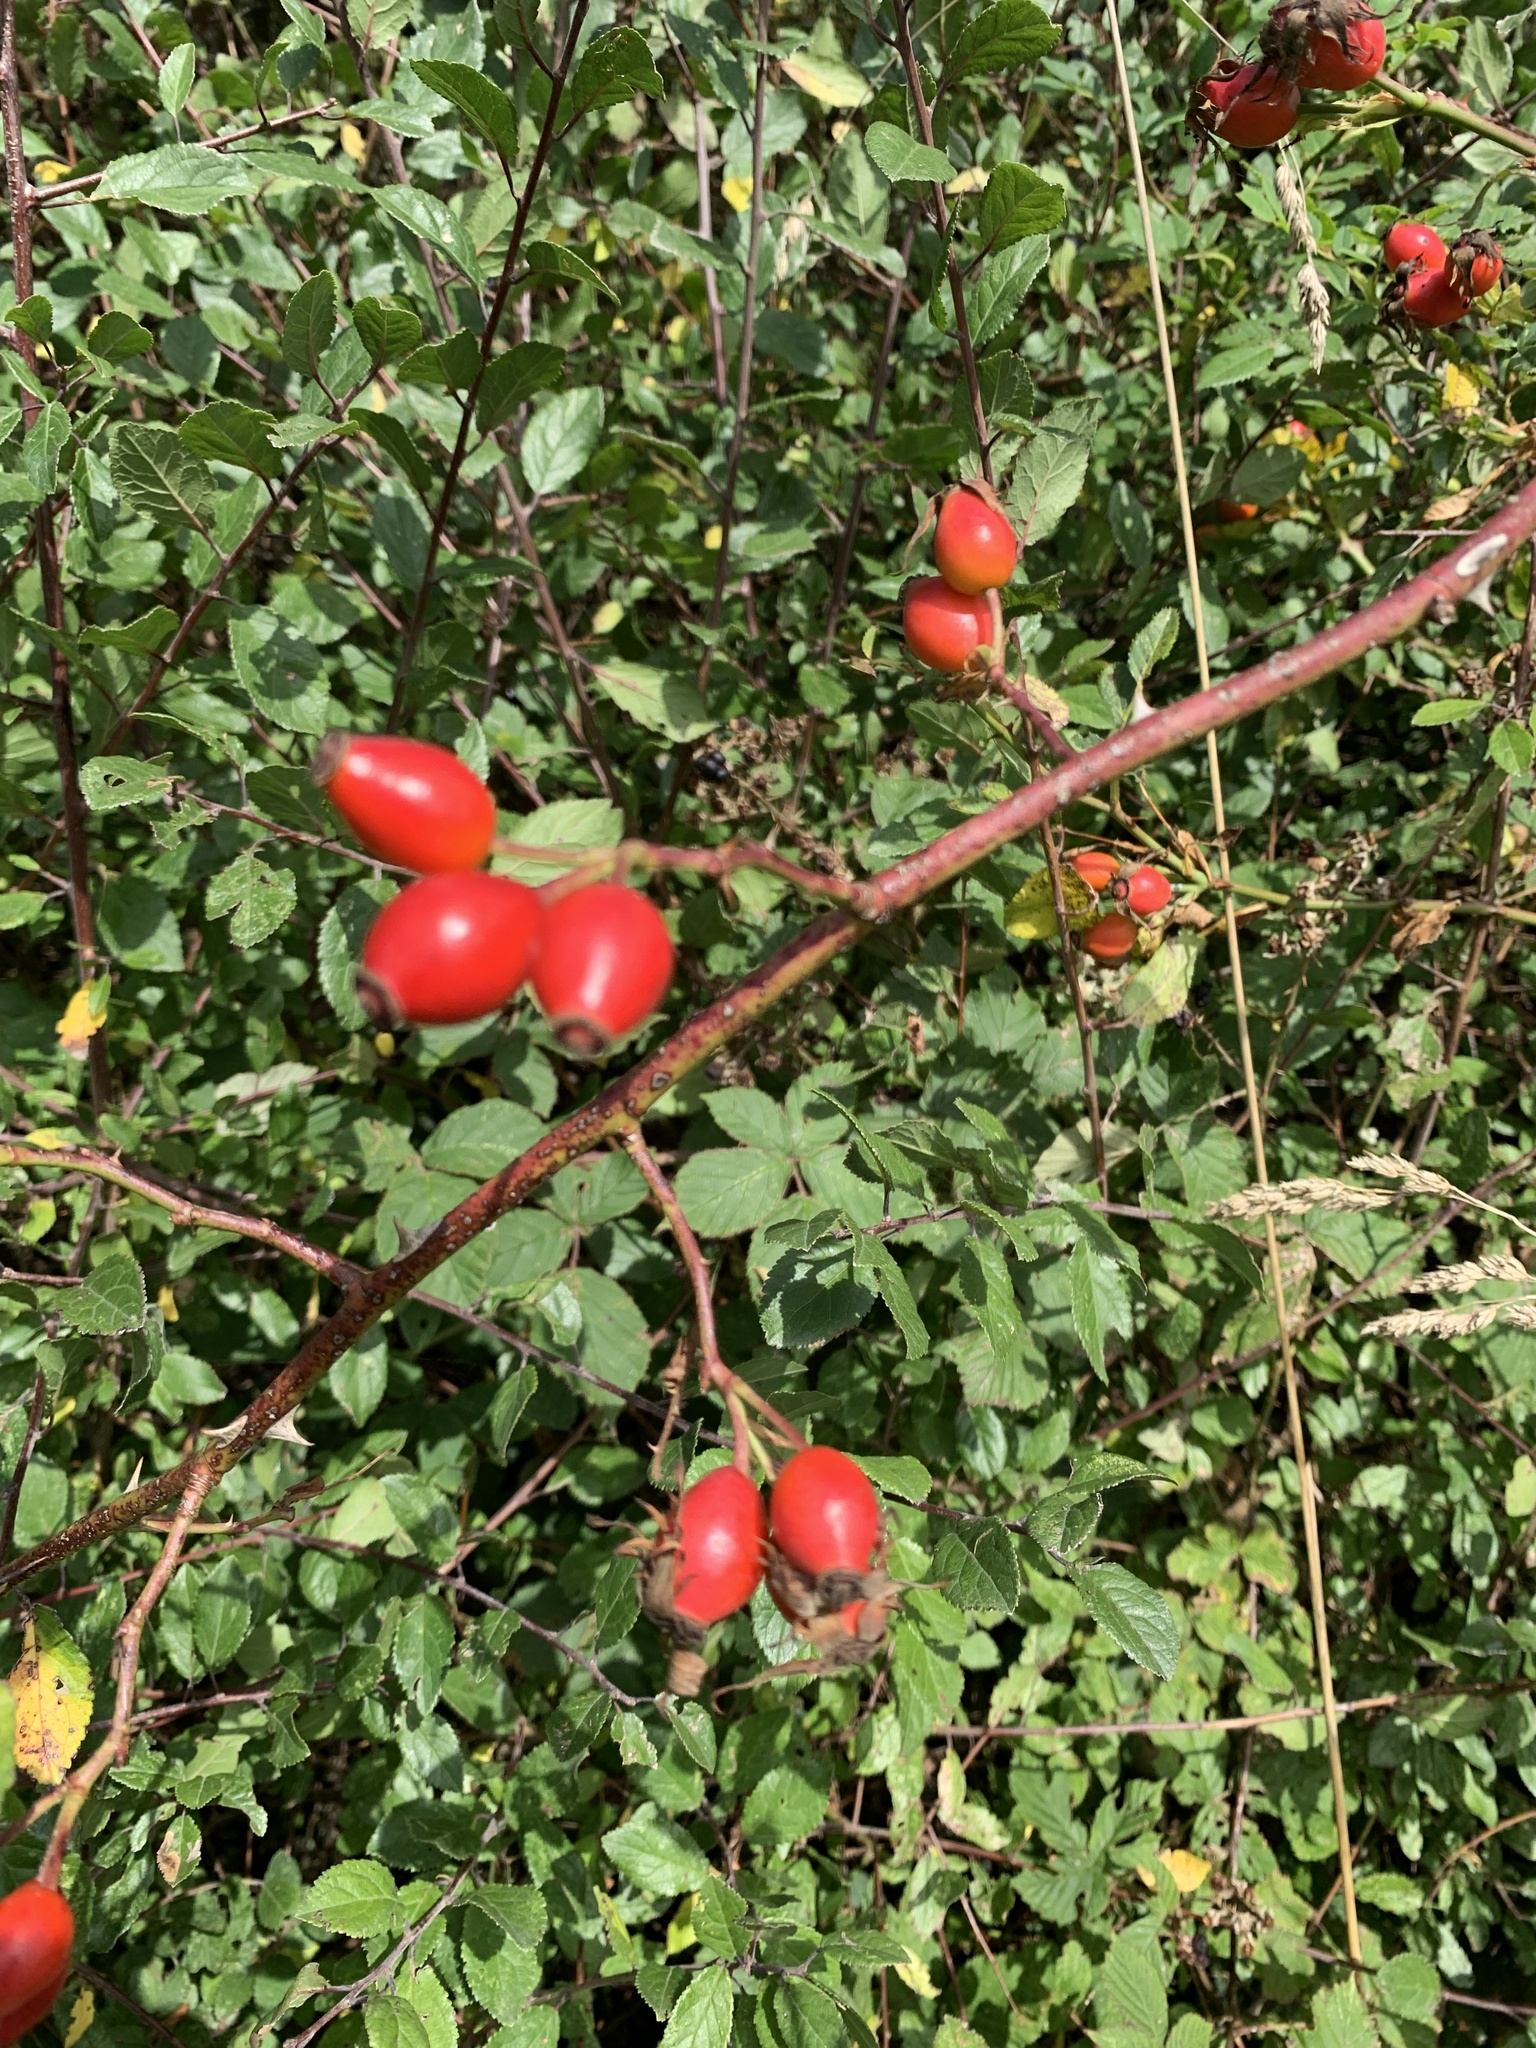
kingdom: Plantae
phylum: Tracheophyta
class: Magnoliopsida
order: Rosales
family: Rosaceae
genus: Rosa
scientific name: Rosa canina
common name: Dog rose
